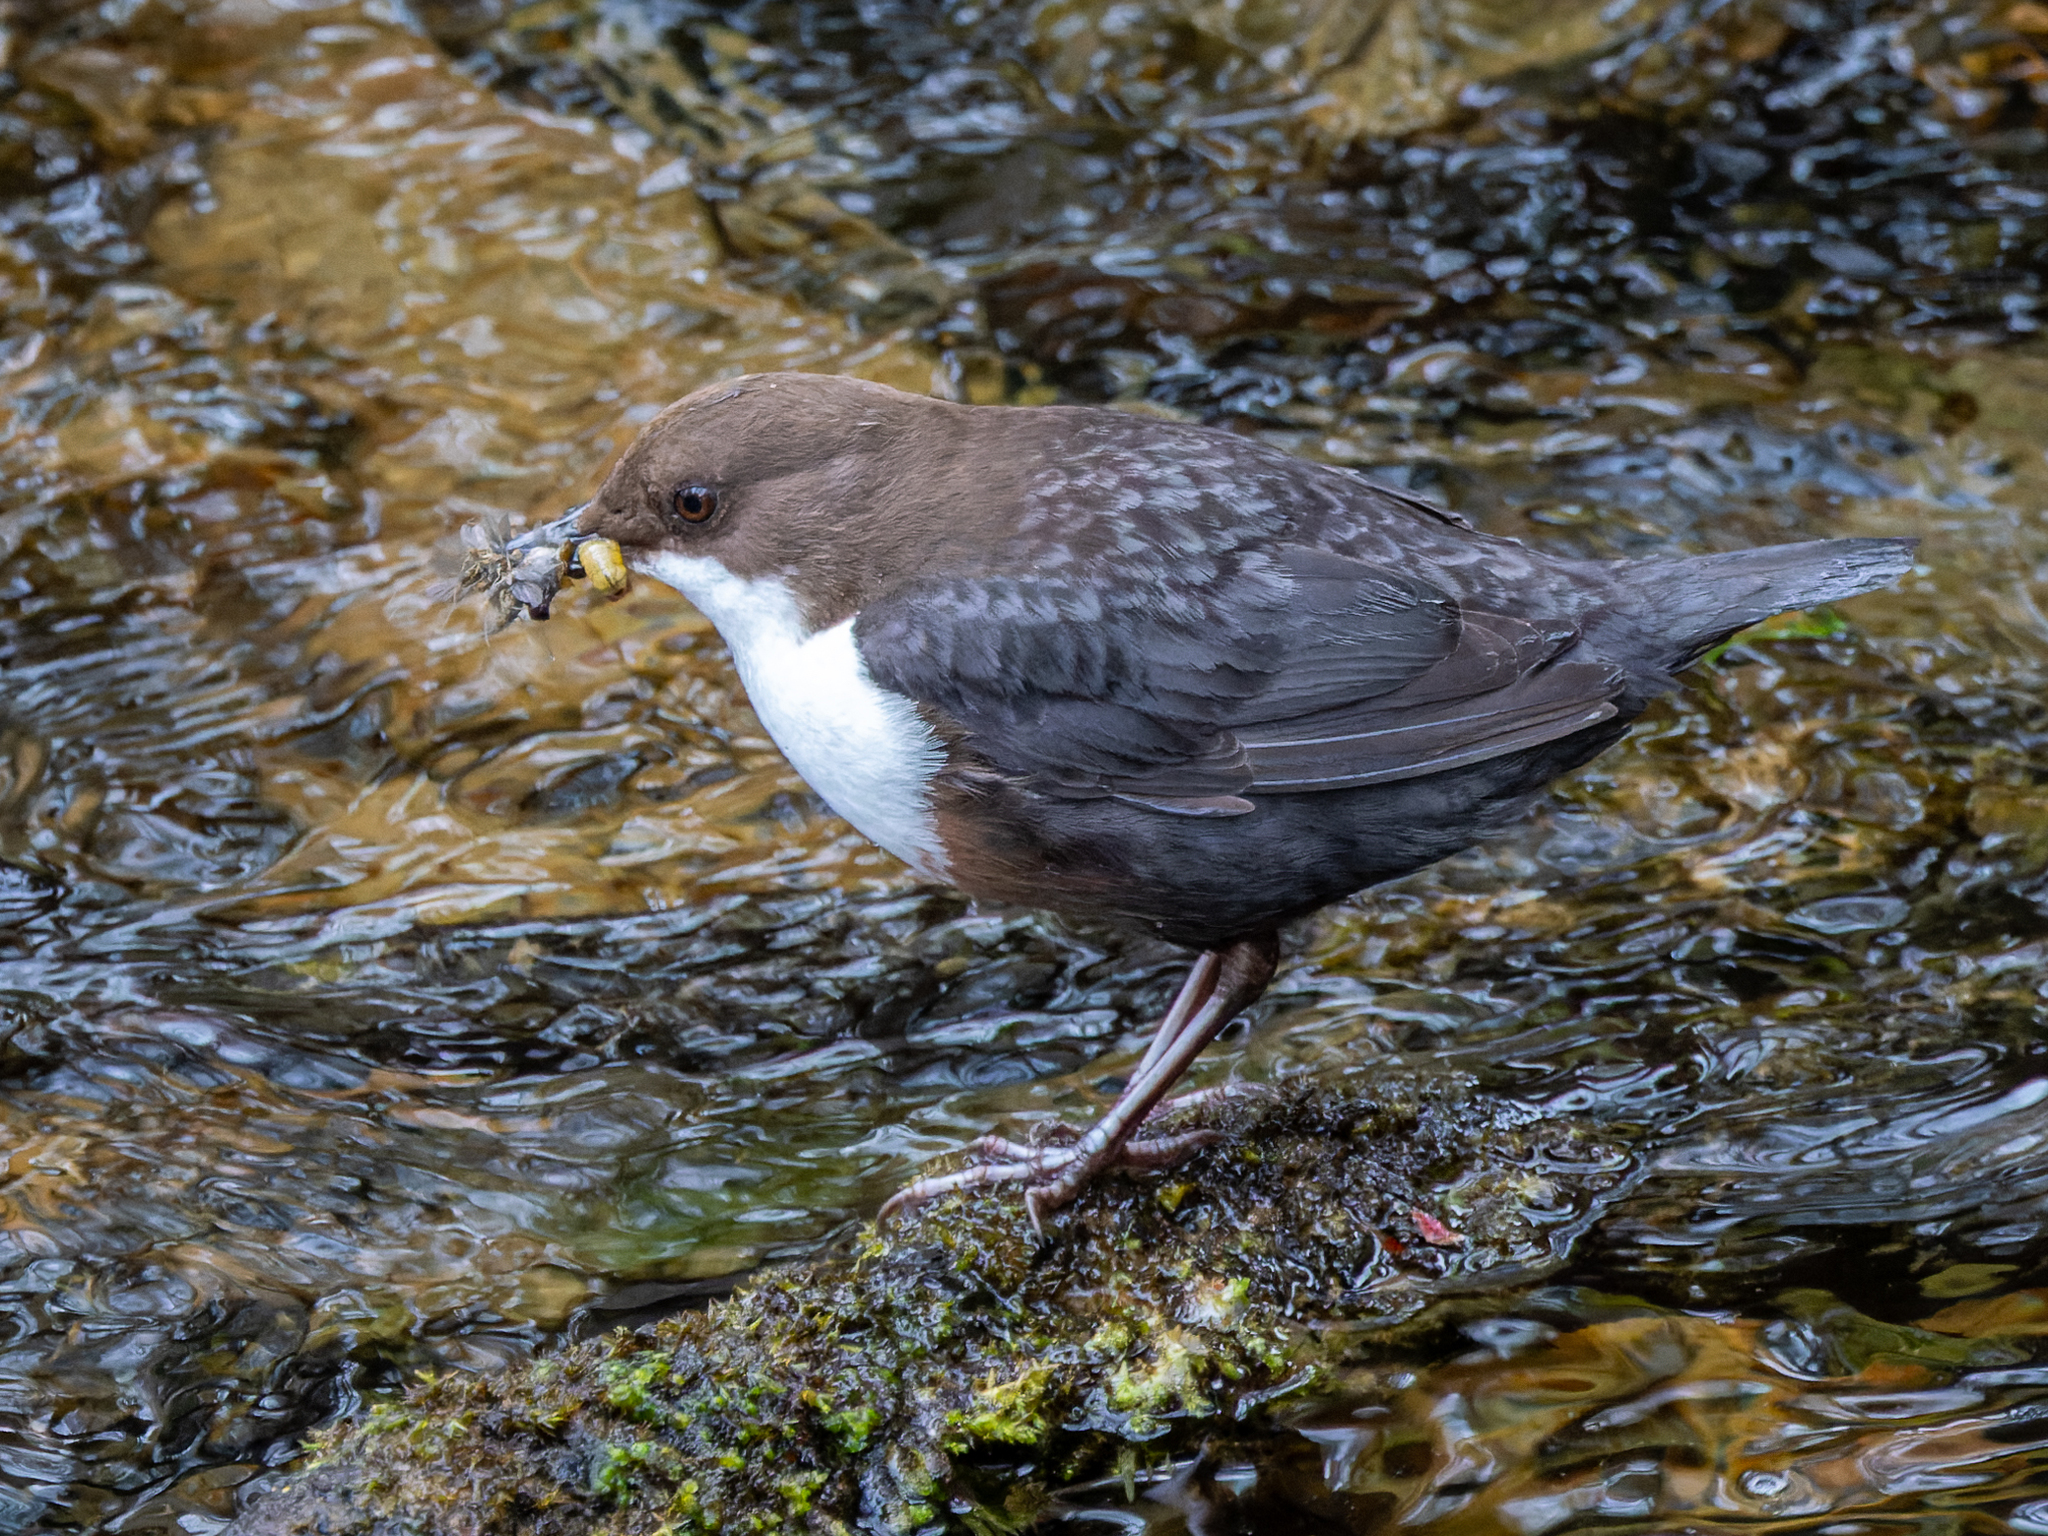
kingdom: Animalia
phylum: Chordata
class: Aves
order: Passeriformes
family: Cinclidae
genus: Cinclus
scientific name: Cinclus cinclus
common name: White-throated dipper
